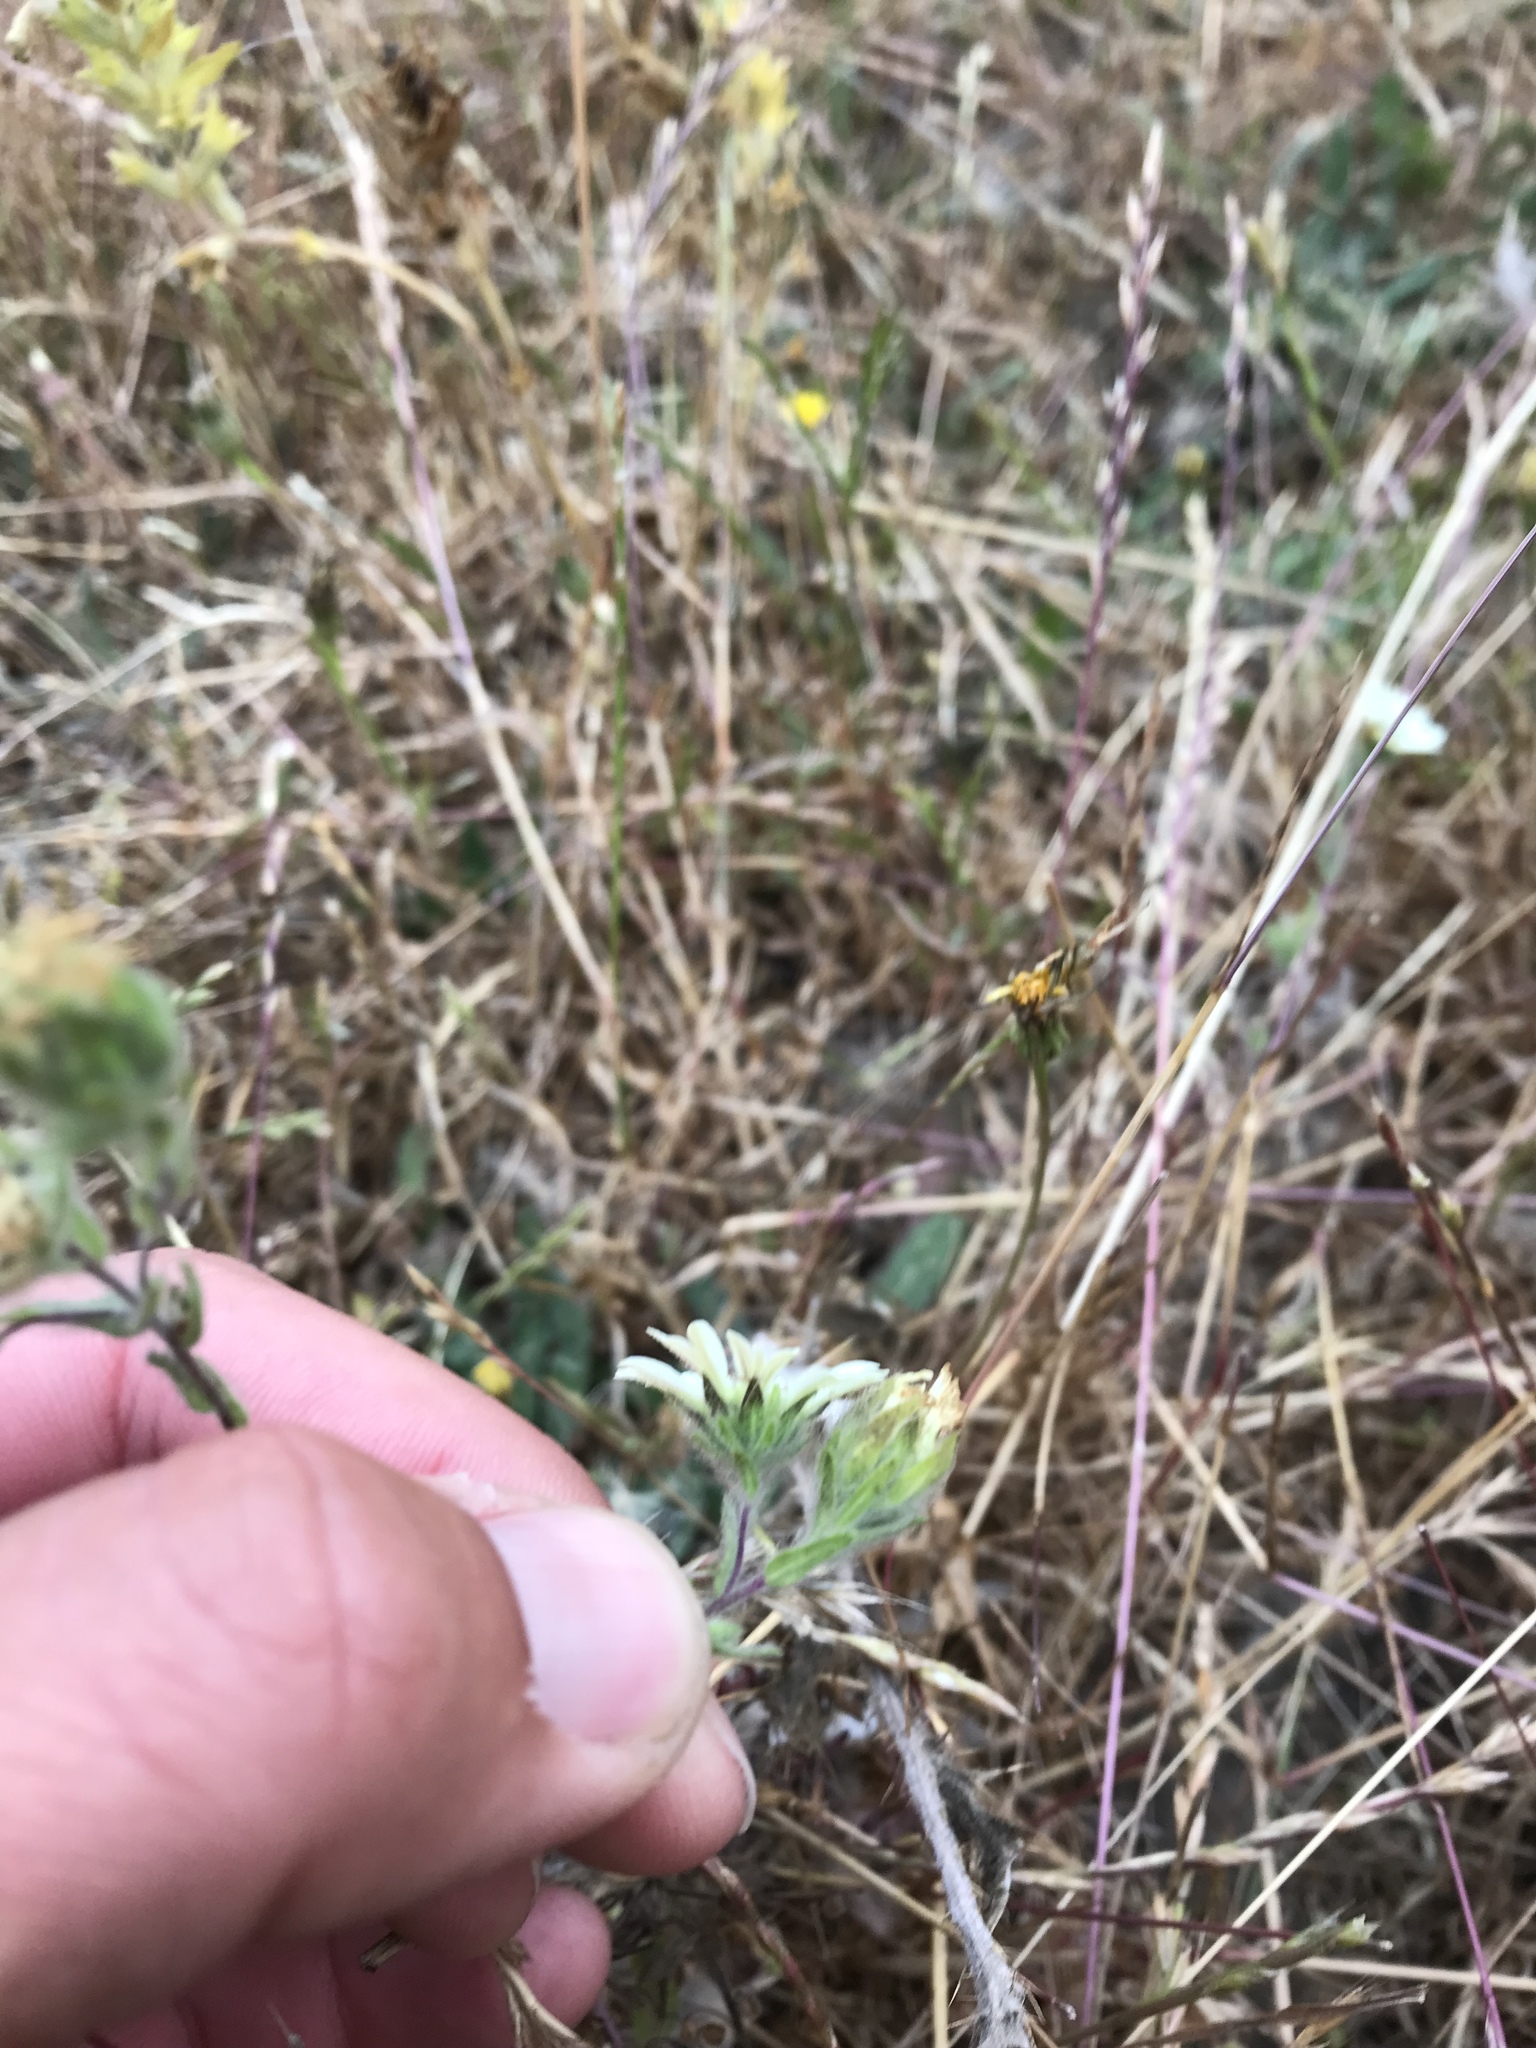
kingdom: Plantae
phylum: Tracheophyta
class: Magnoliopsida
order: Asterales
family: Asteraceae
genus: Hemizonia
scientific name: Hemizonia congesta
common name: Hayfield tarweed
